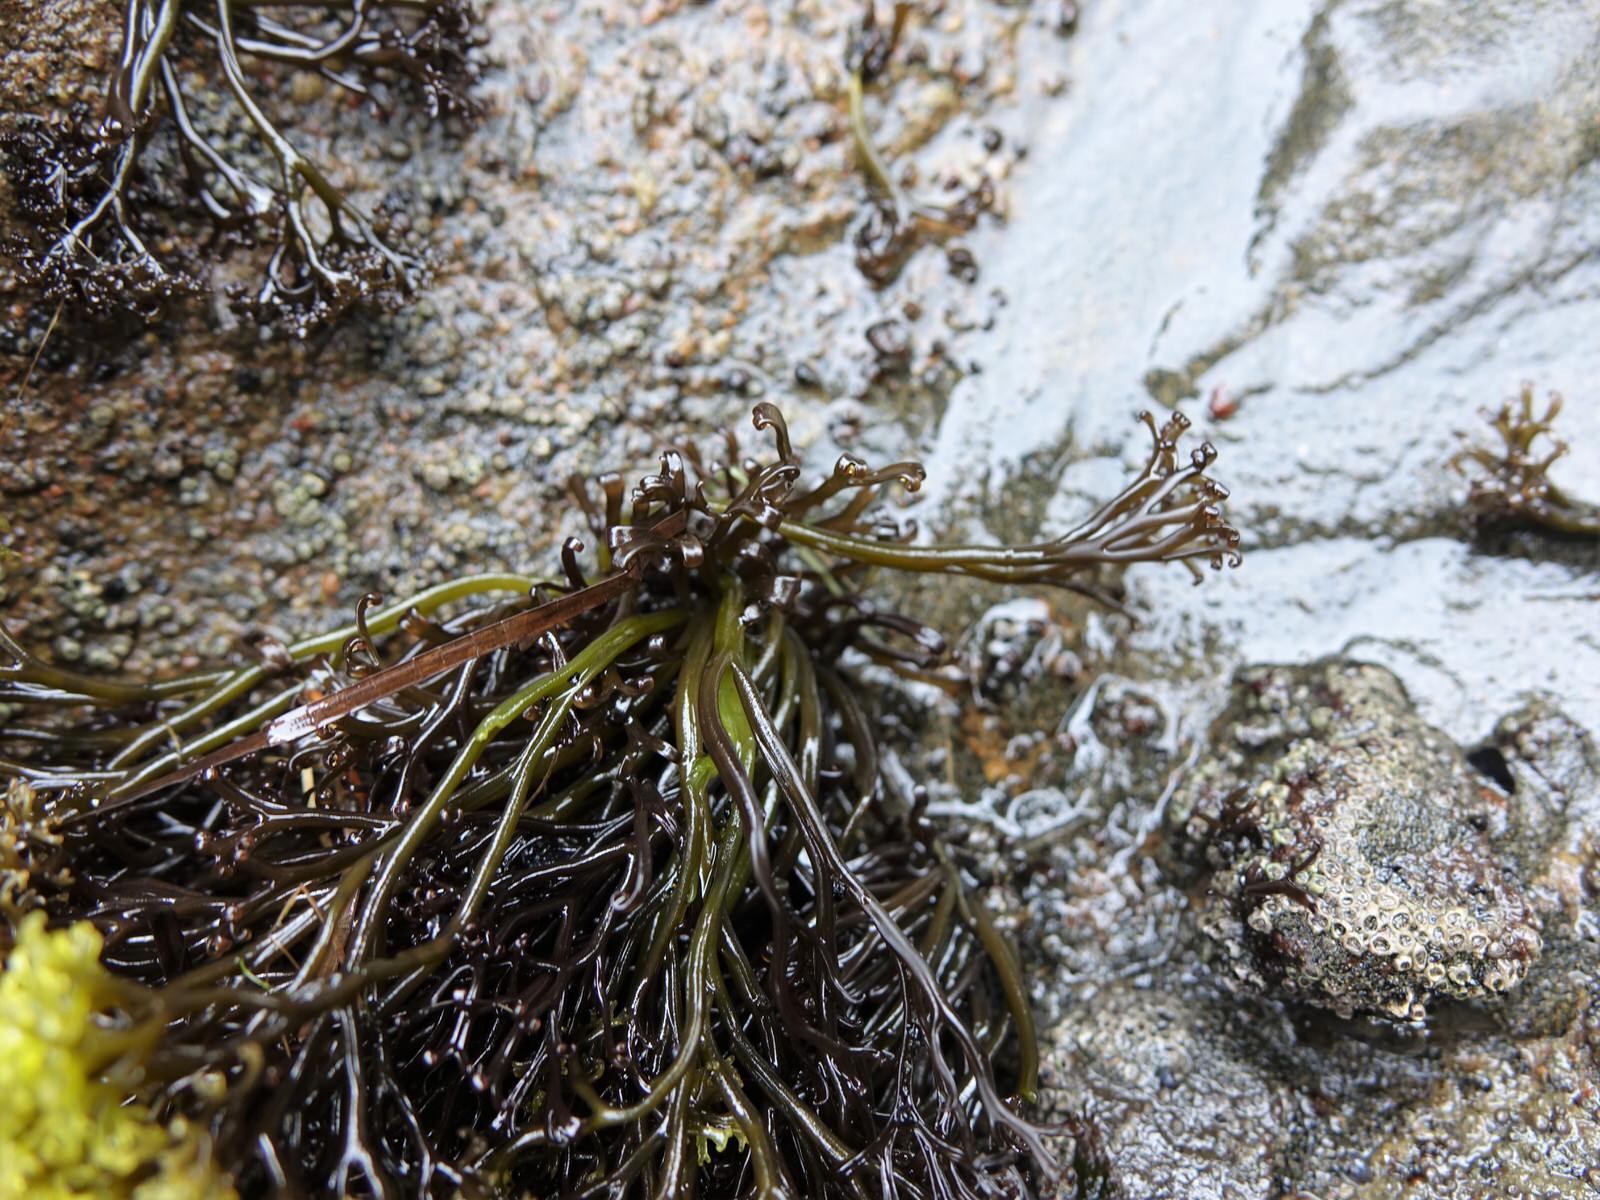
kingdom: Plantae
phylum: Rhodophyta
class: Florideophyceae
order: Gigartinales
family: Gigartinaceae
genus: Psilophycus
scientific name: Psilophycus alveatus
